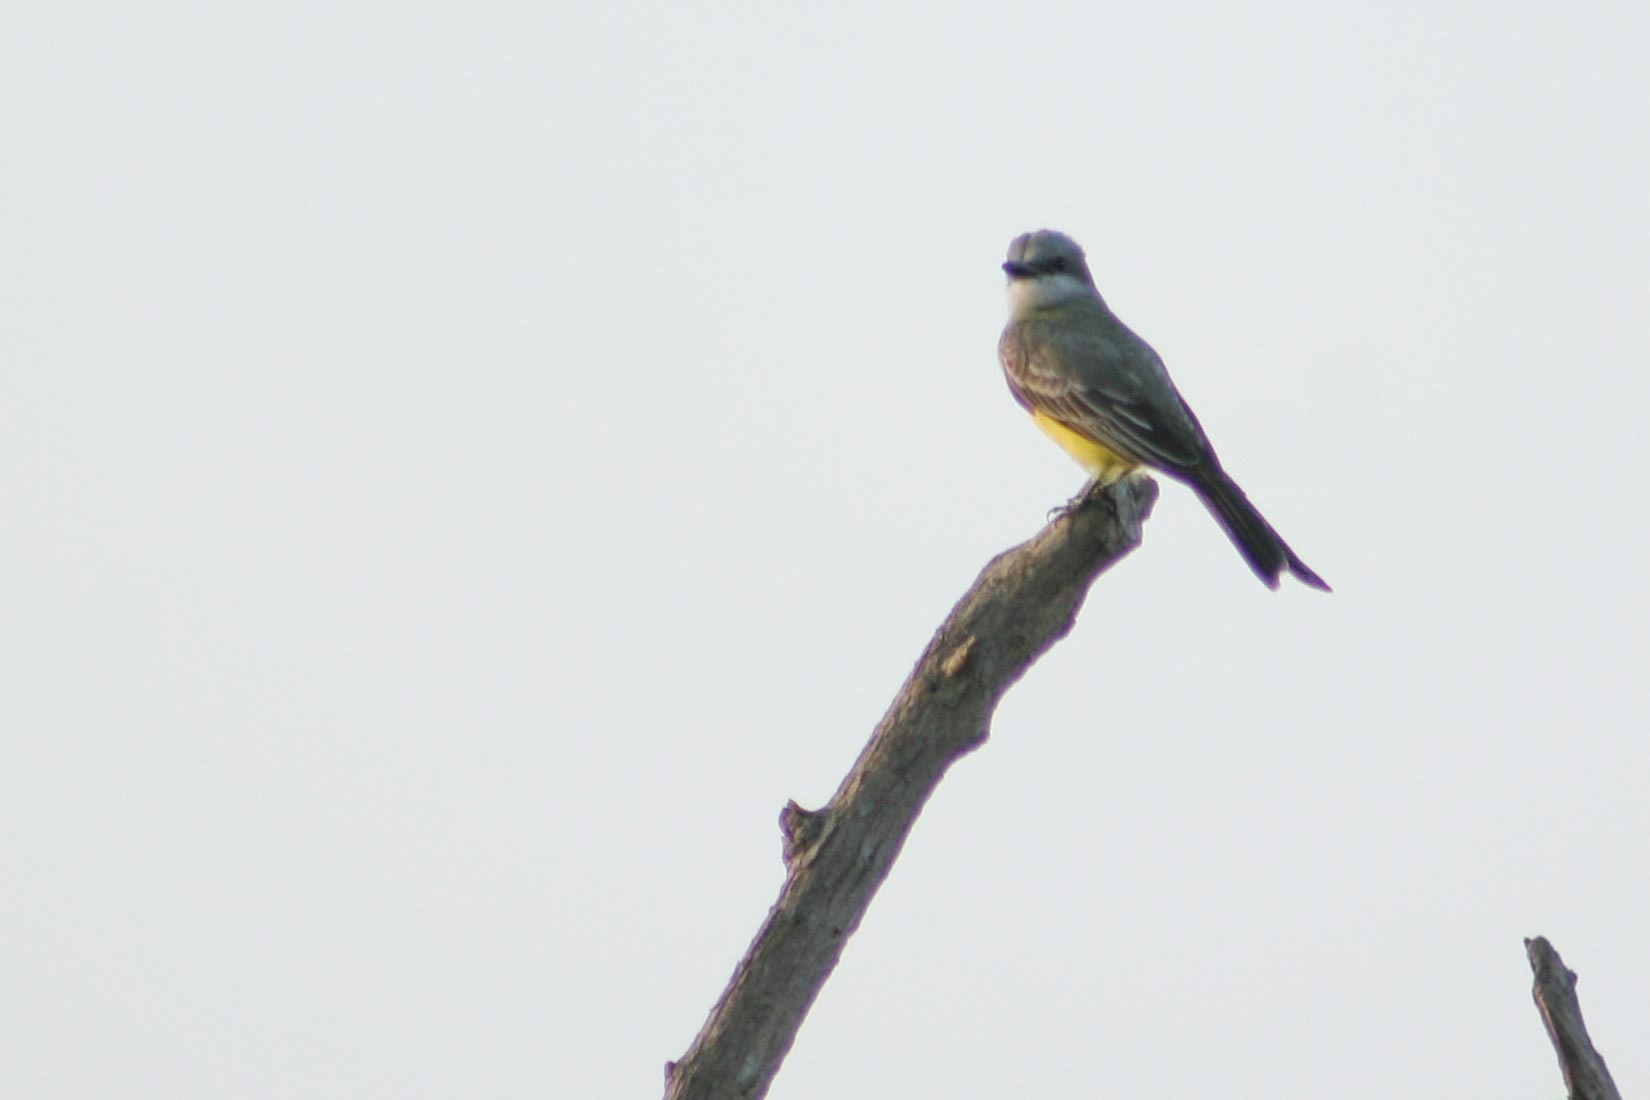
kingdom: Animalia
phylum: Chordata
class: Aves
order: Passeriformes
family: Tyrannidae
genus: Tyrannus
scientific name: Tyrannus melancholicus
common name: Tropical kingbird
